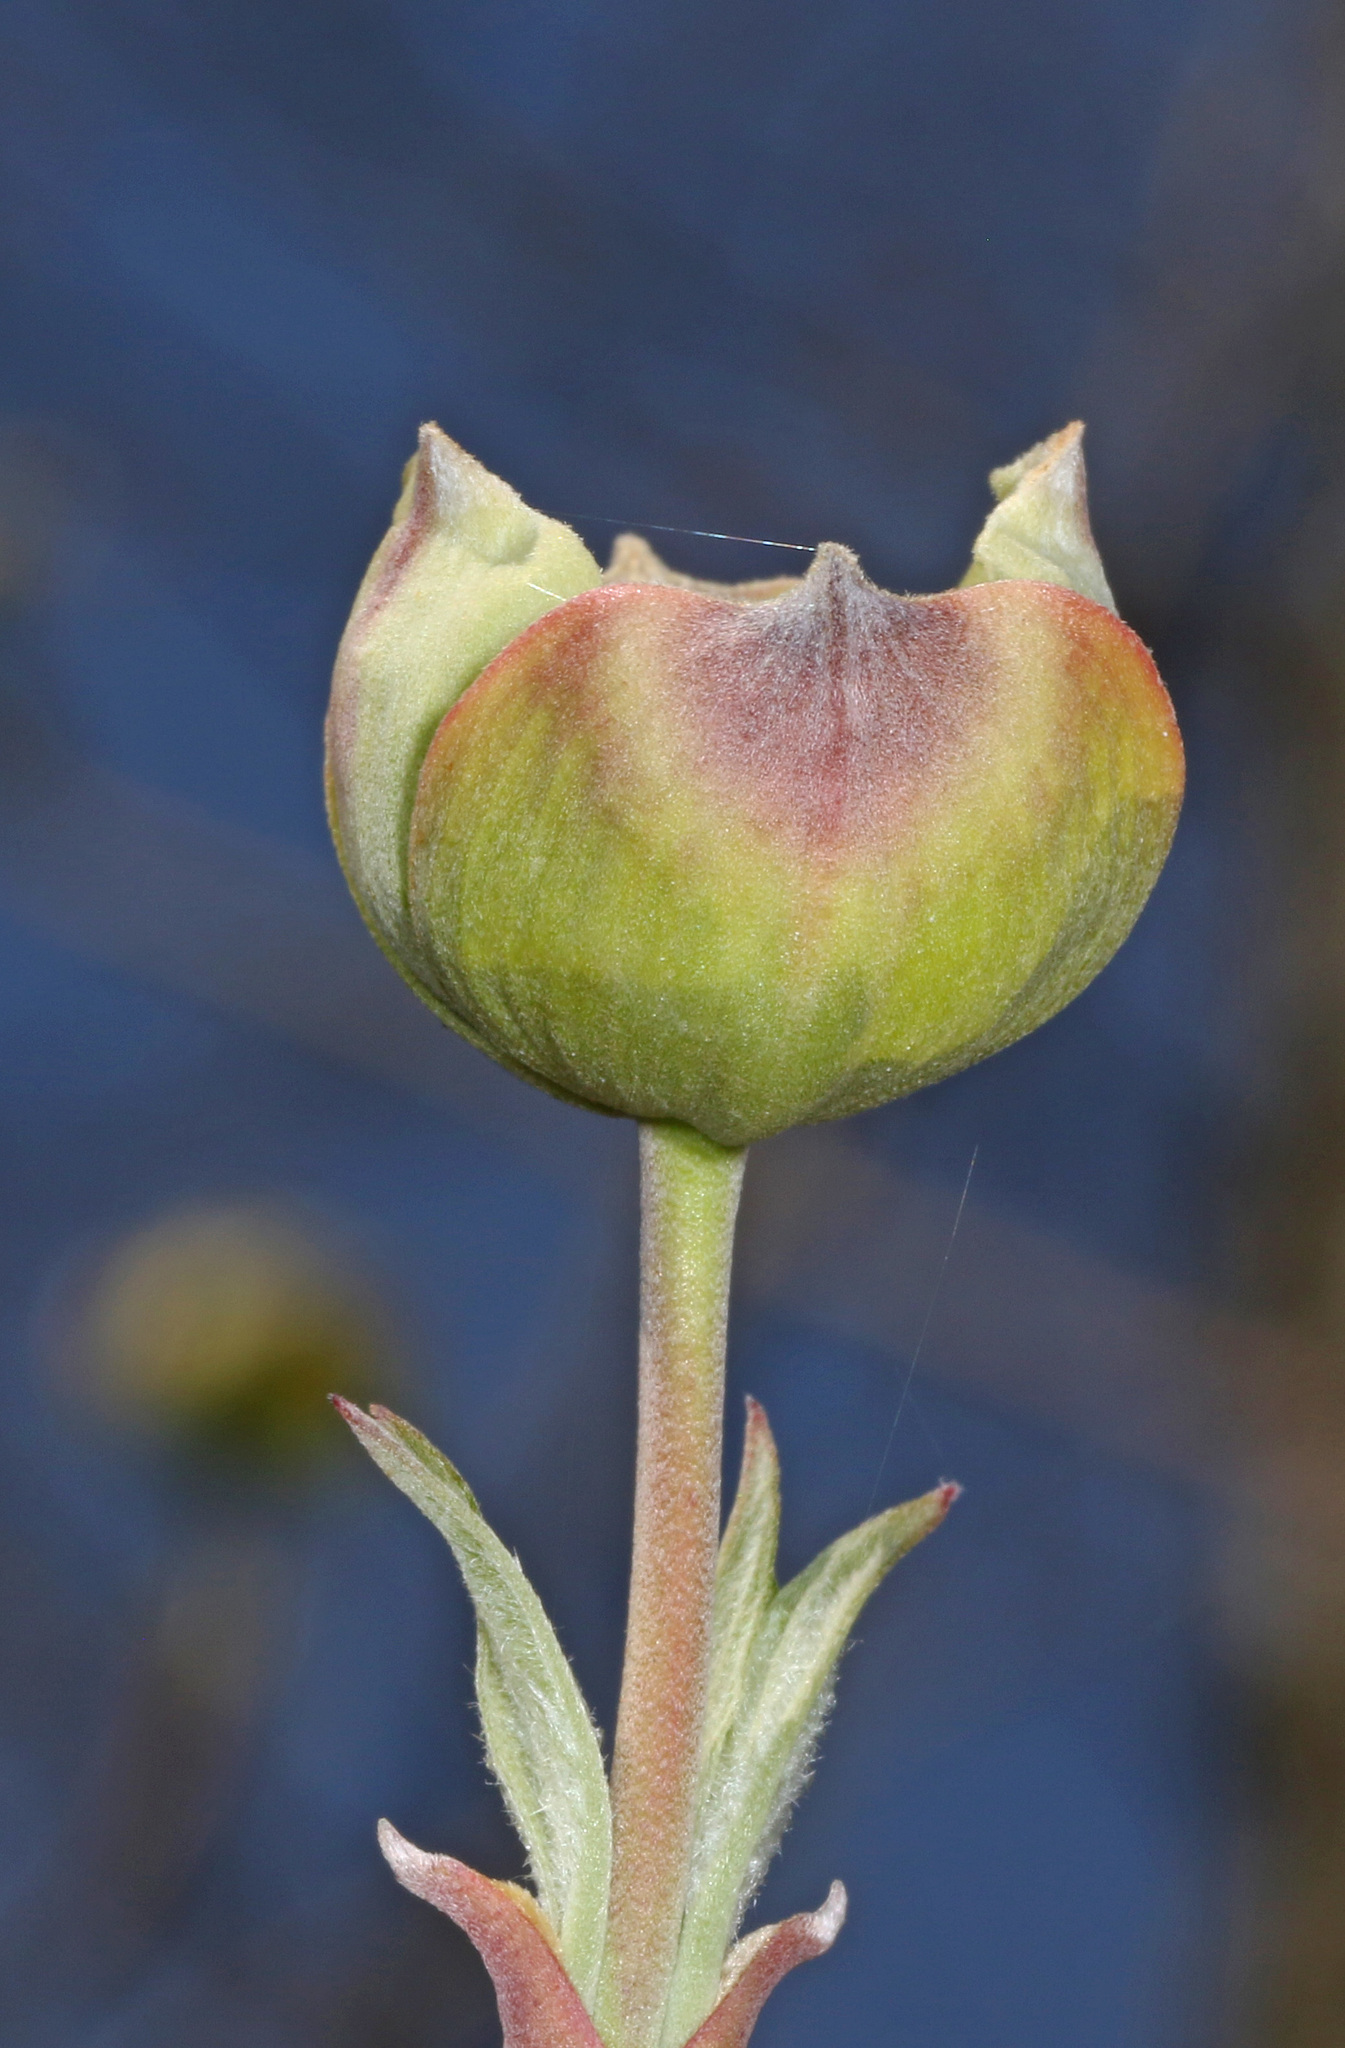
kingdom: Plantae
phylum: Tracheophyta
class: Magnoliopsida
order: Cornales
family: Cornaceae
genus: Cornus
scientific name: Cornus florida
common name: Flowering dogwood
